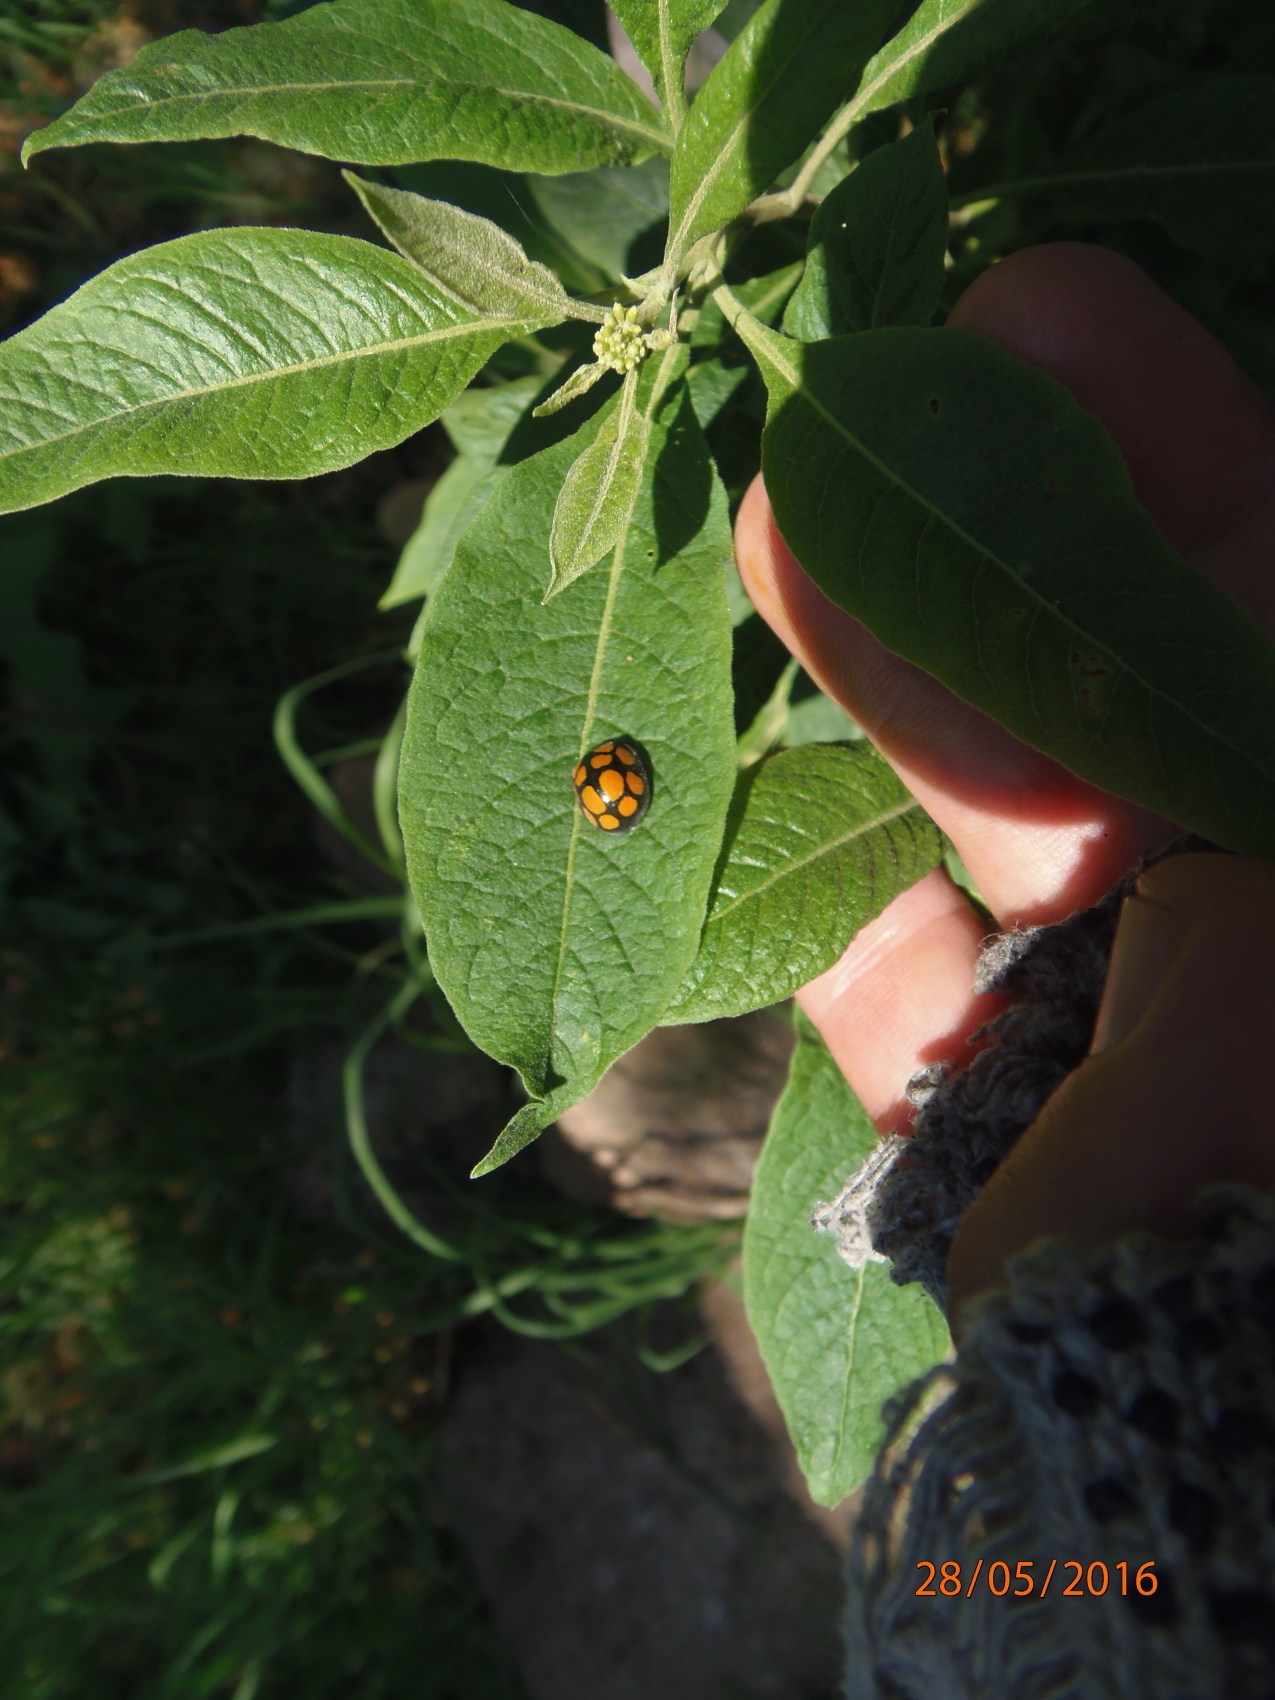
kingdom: Animalia
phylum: Arthropoda
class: Insecta
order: Coleoptera
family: Coccinellidae
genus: Epilachna
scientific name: Epilachna
